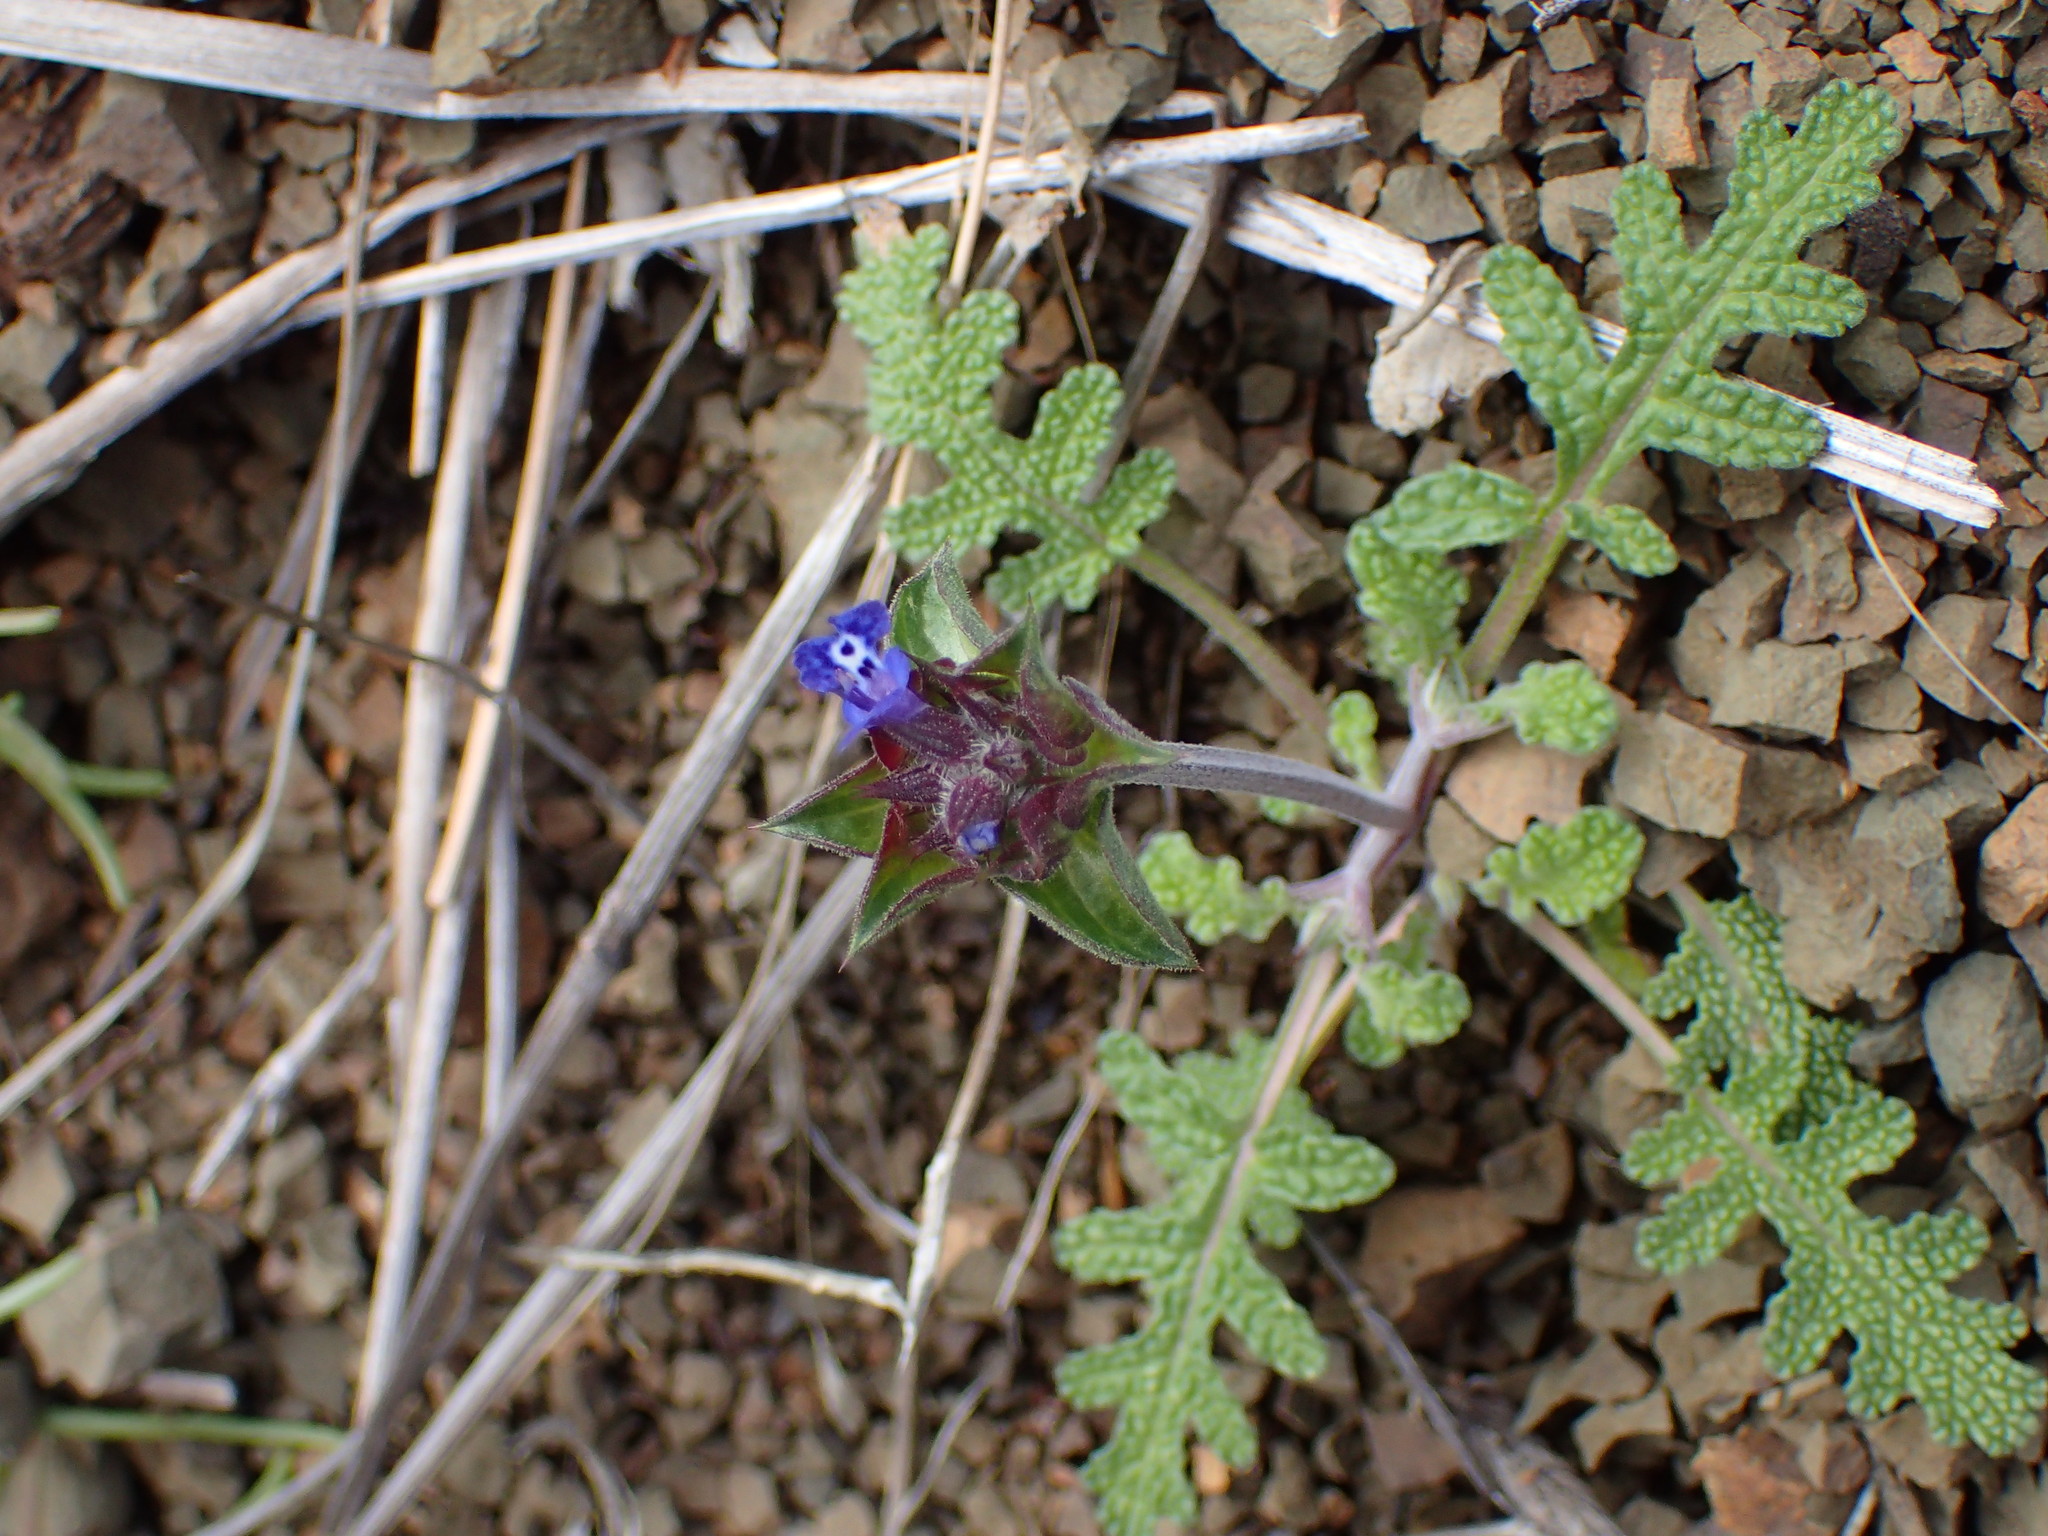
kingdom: Plantae
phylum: Tracheophyta
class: Magnoliopsida
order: Lamiales
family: Lamiaceae
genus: Salvia
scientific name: Salvia columbariae
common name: Chia
